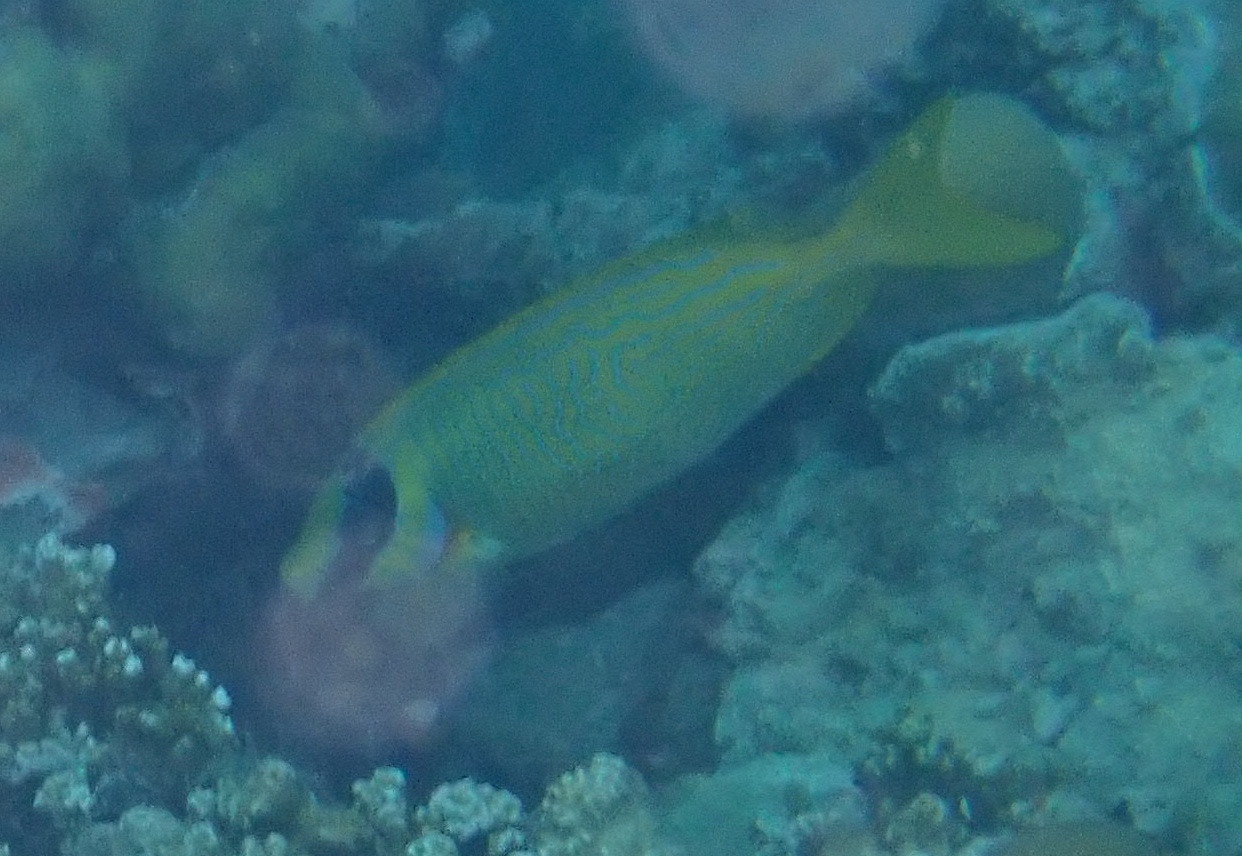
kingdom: Animalia
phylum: Chordata
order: Perciformes
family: Siganidae
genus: Siganus
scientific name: Siganus puellus
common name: Masked rabbitfish
